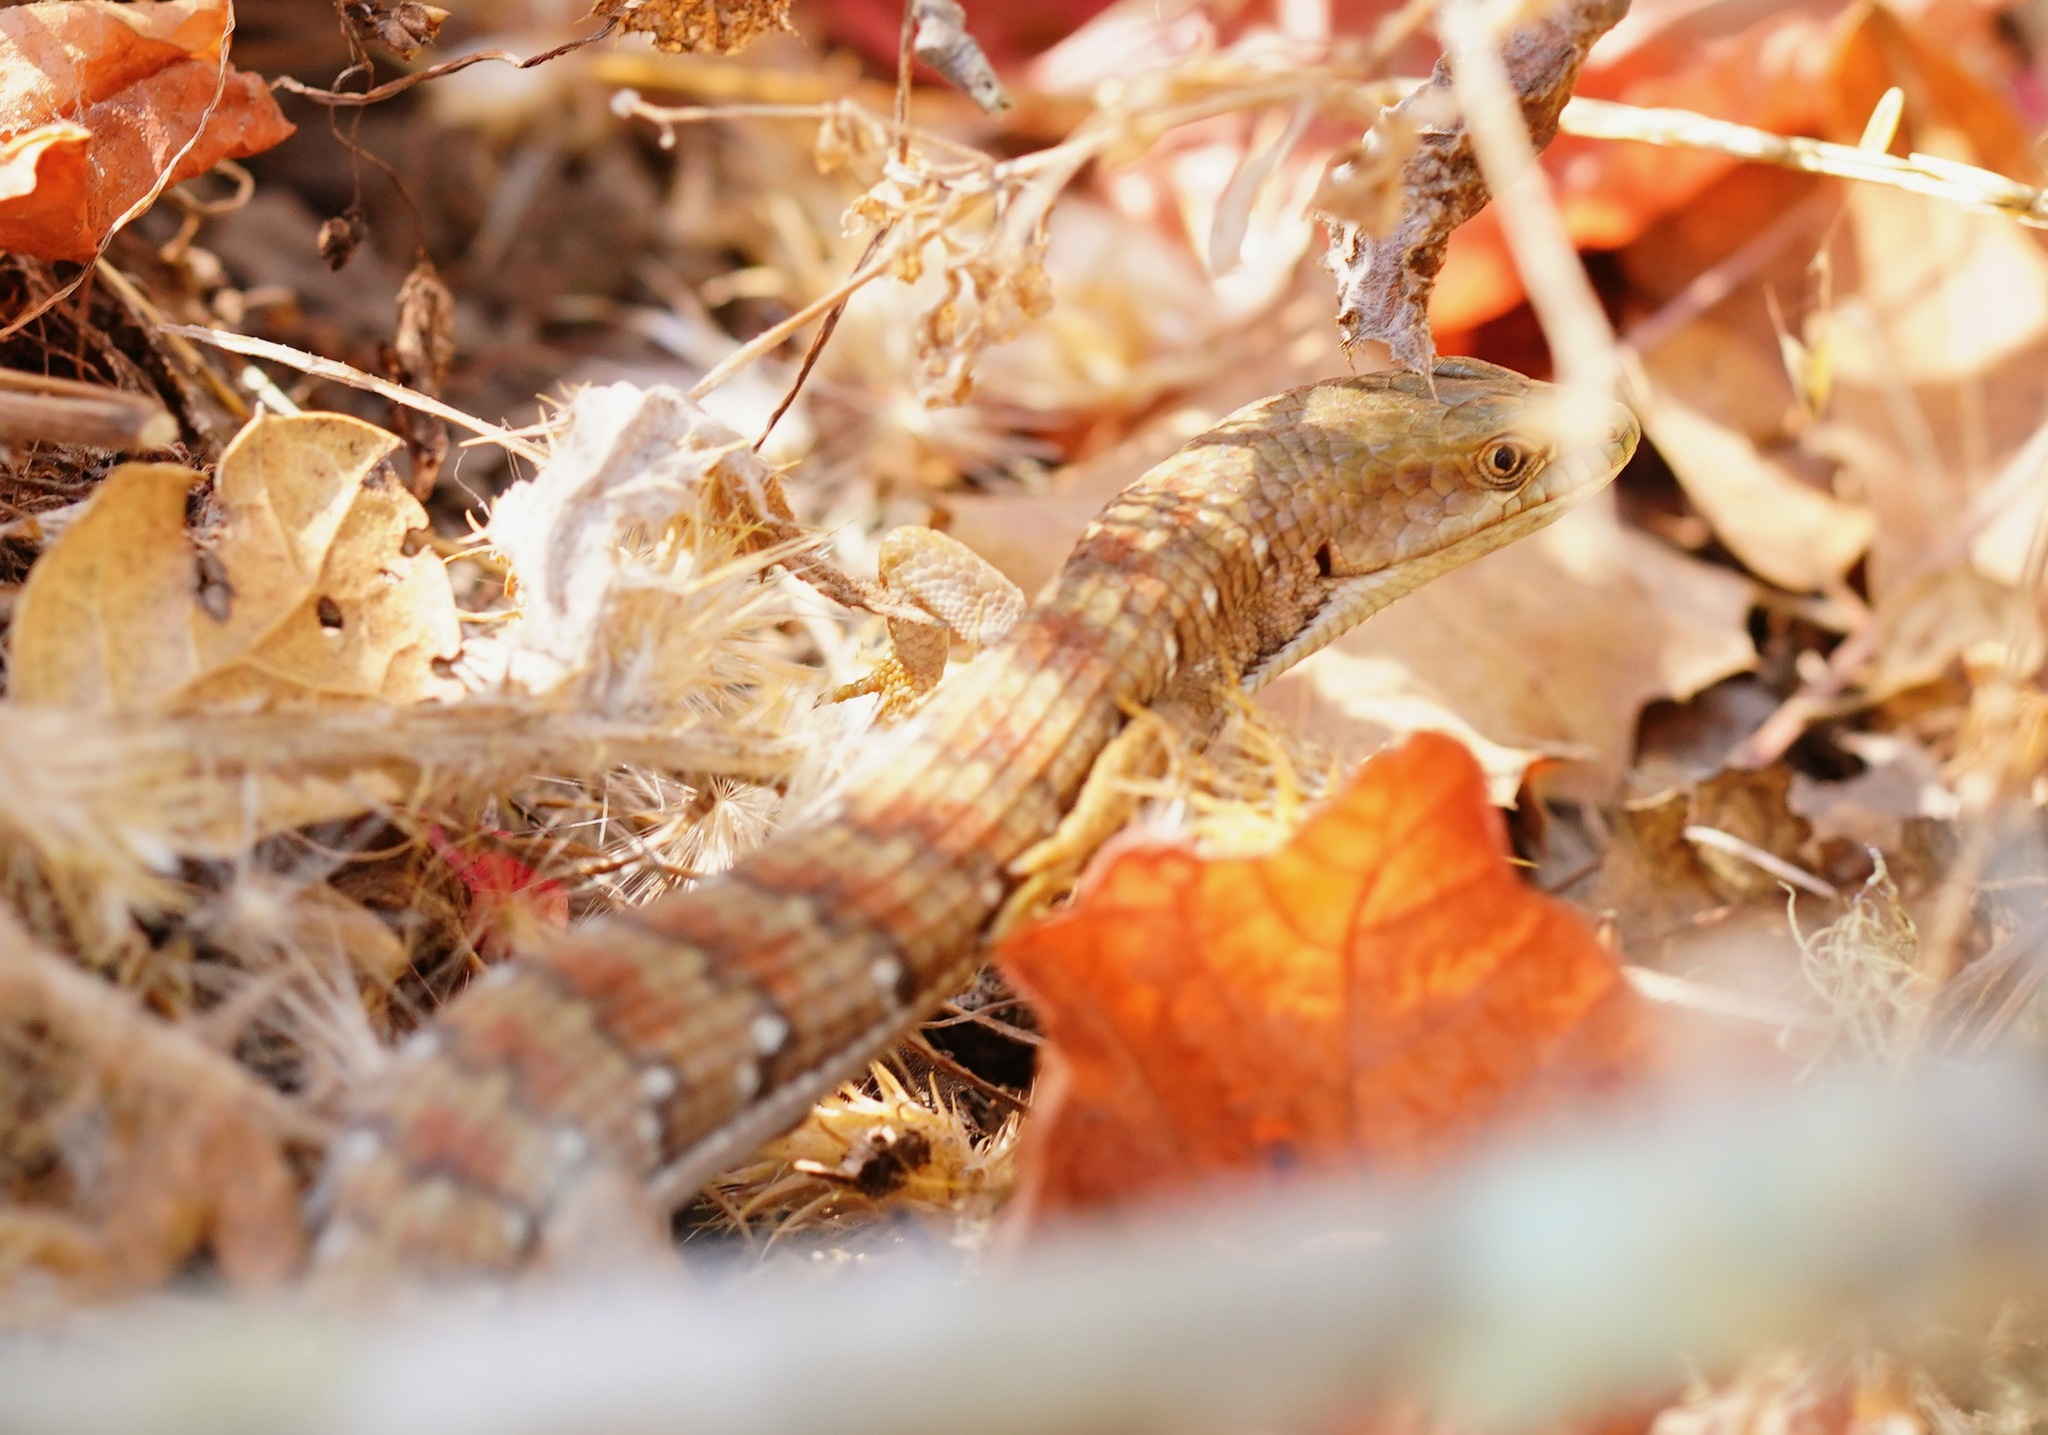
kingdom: Animalia
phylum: Chordata
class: Squamata
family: Anguidae
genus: Elgaria
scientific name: Elgaria multicarinata
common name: Southern alligator lizard
